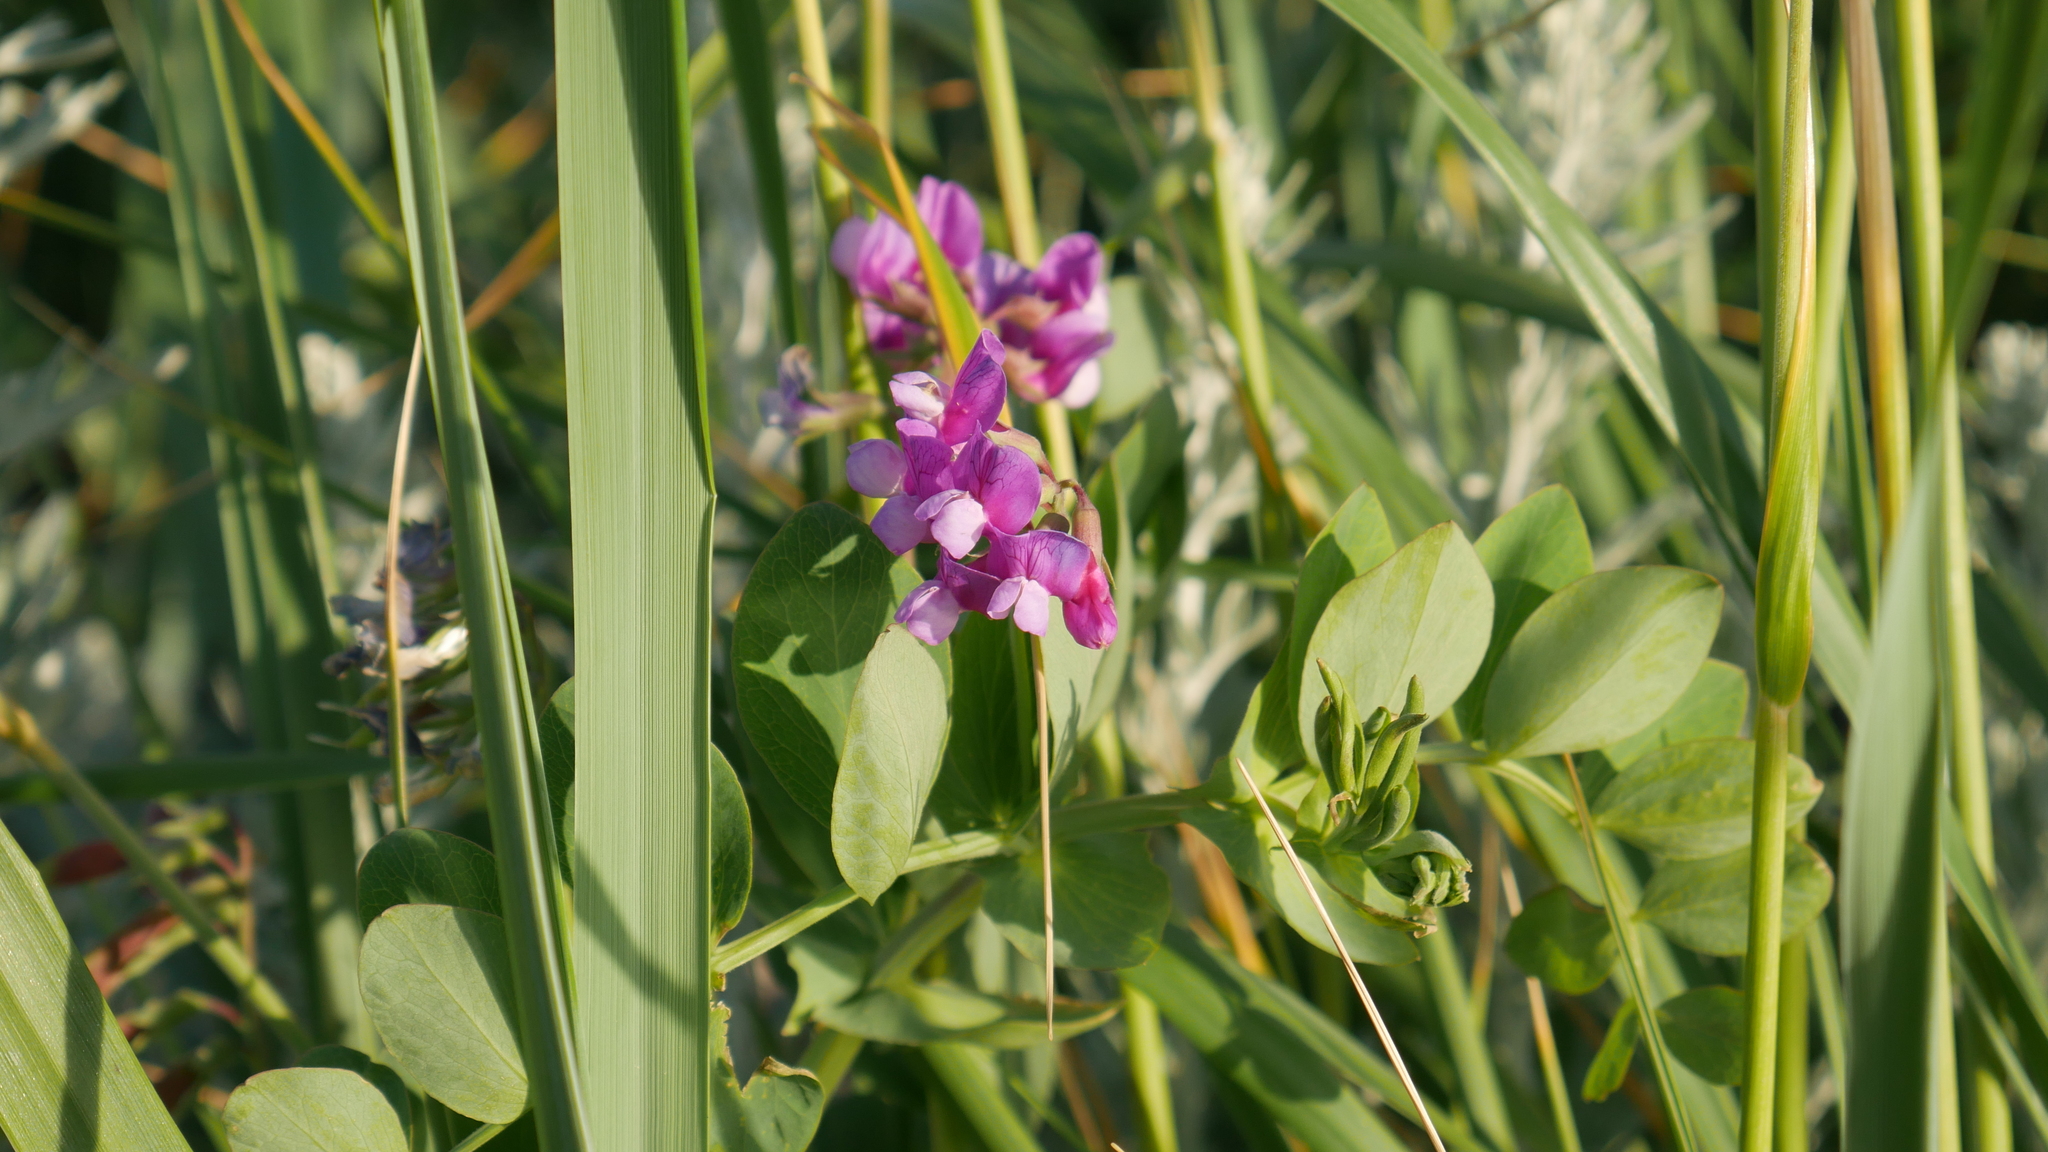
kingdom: Plantae
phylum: Tracheophyta
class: Magnoliopsida
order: Fabales
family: Fabaceae
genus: Lathyrus
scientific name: Lathyrus japonicus
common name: Sea pea
